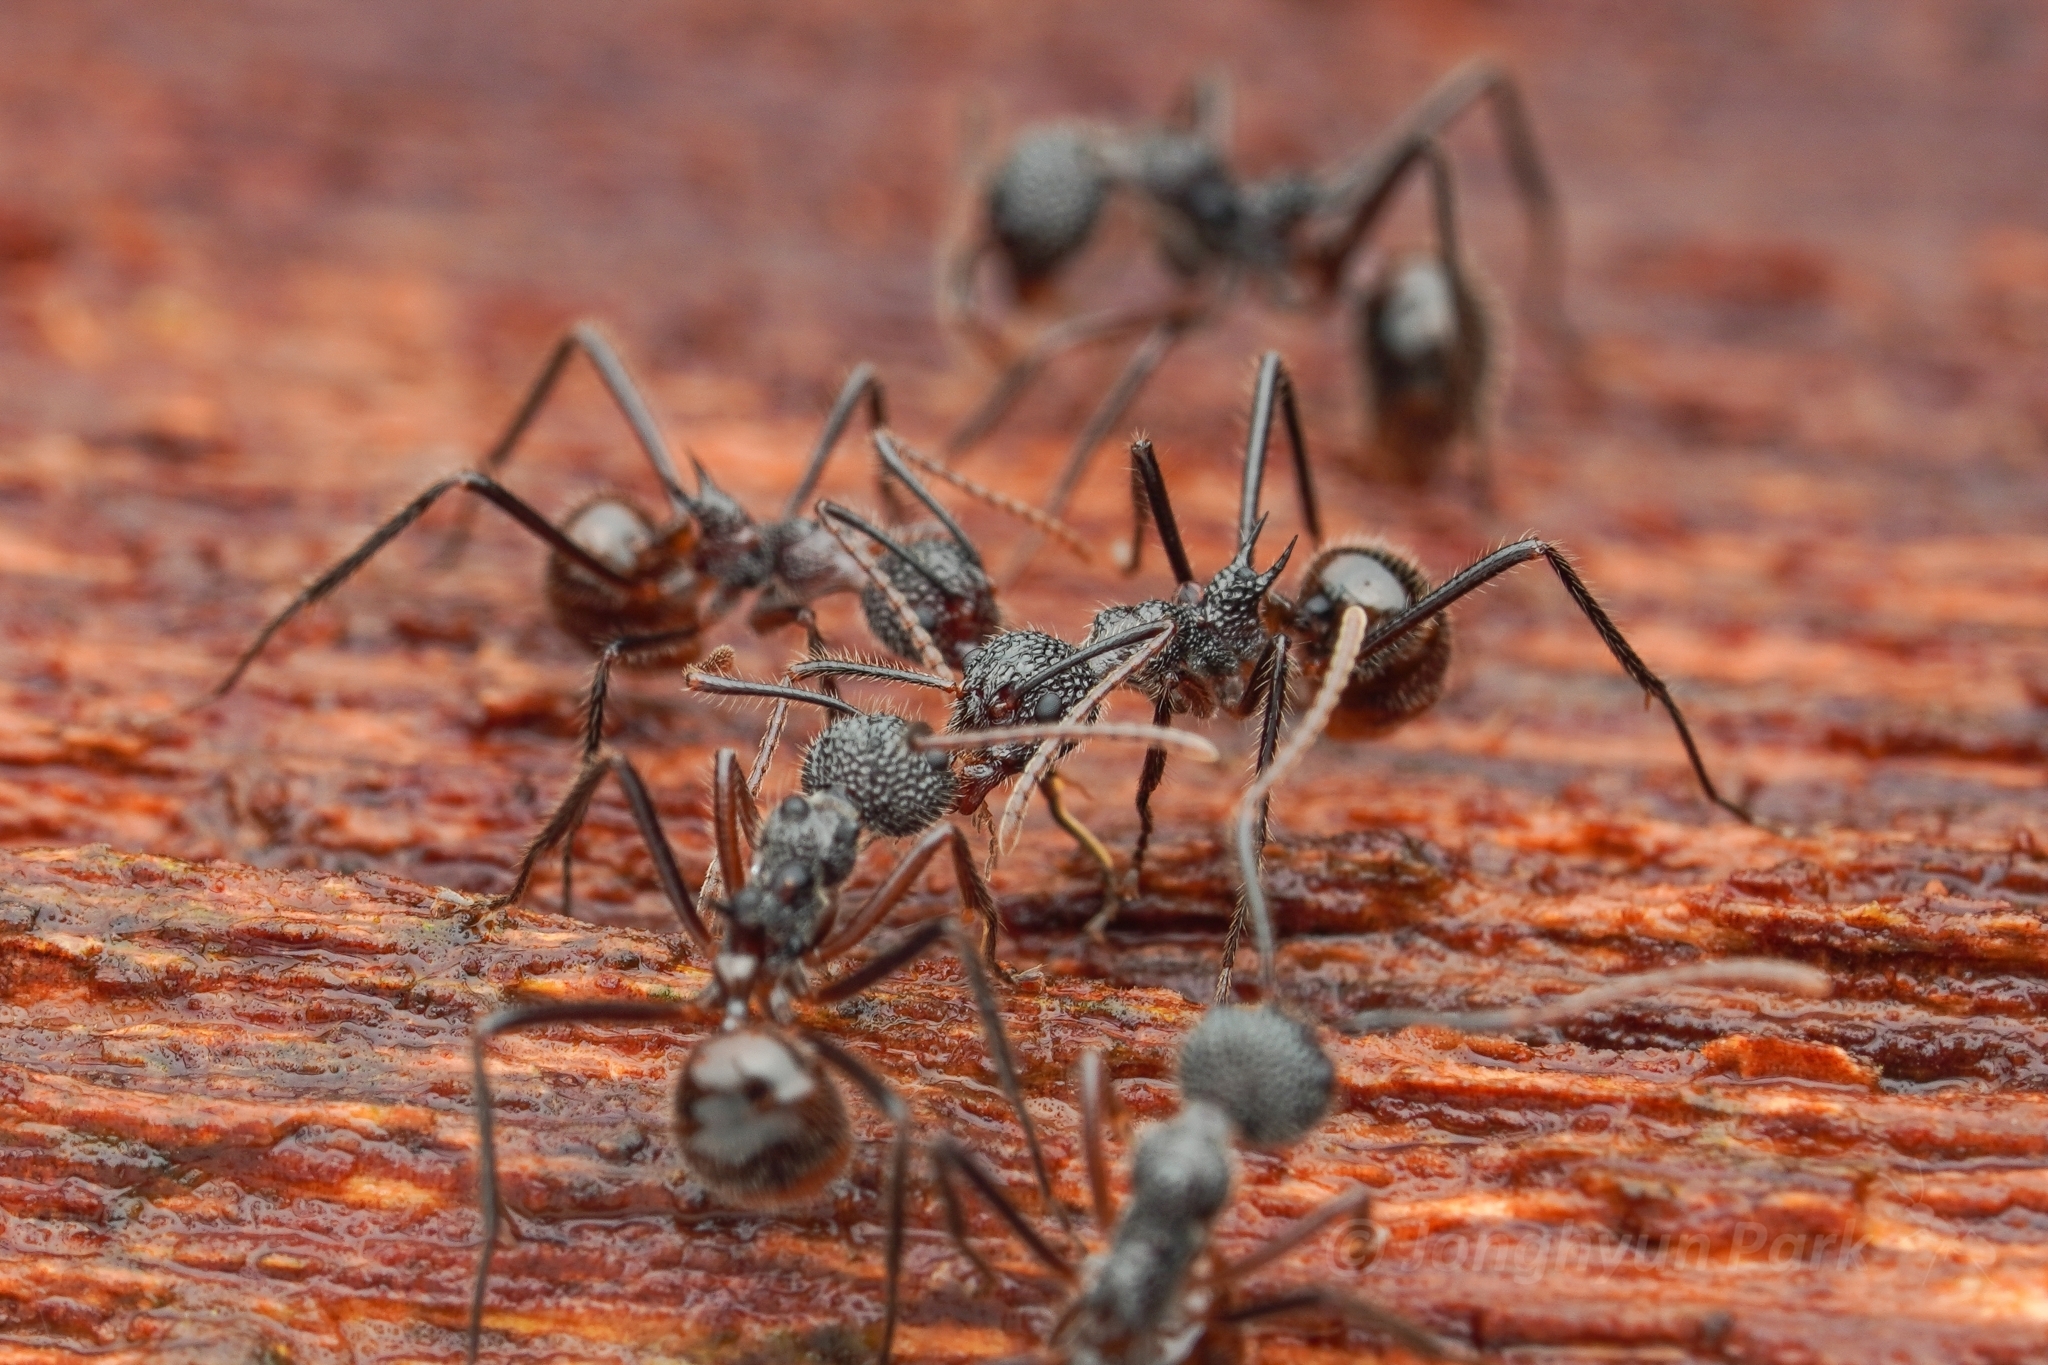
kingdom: Animalia
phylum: Arthropoda
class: Insecta
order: Hymenoptera
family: Formicidae
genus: Dolichoderus
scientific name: Dolichoderus indrapurensis
